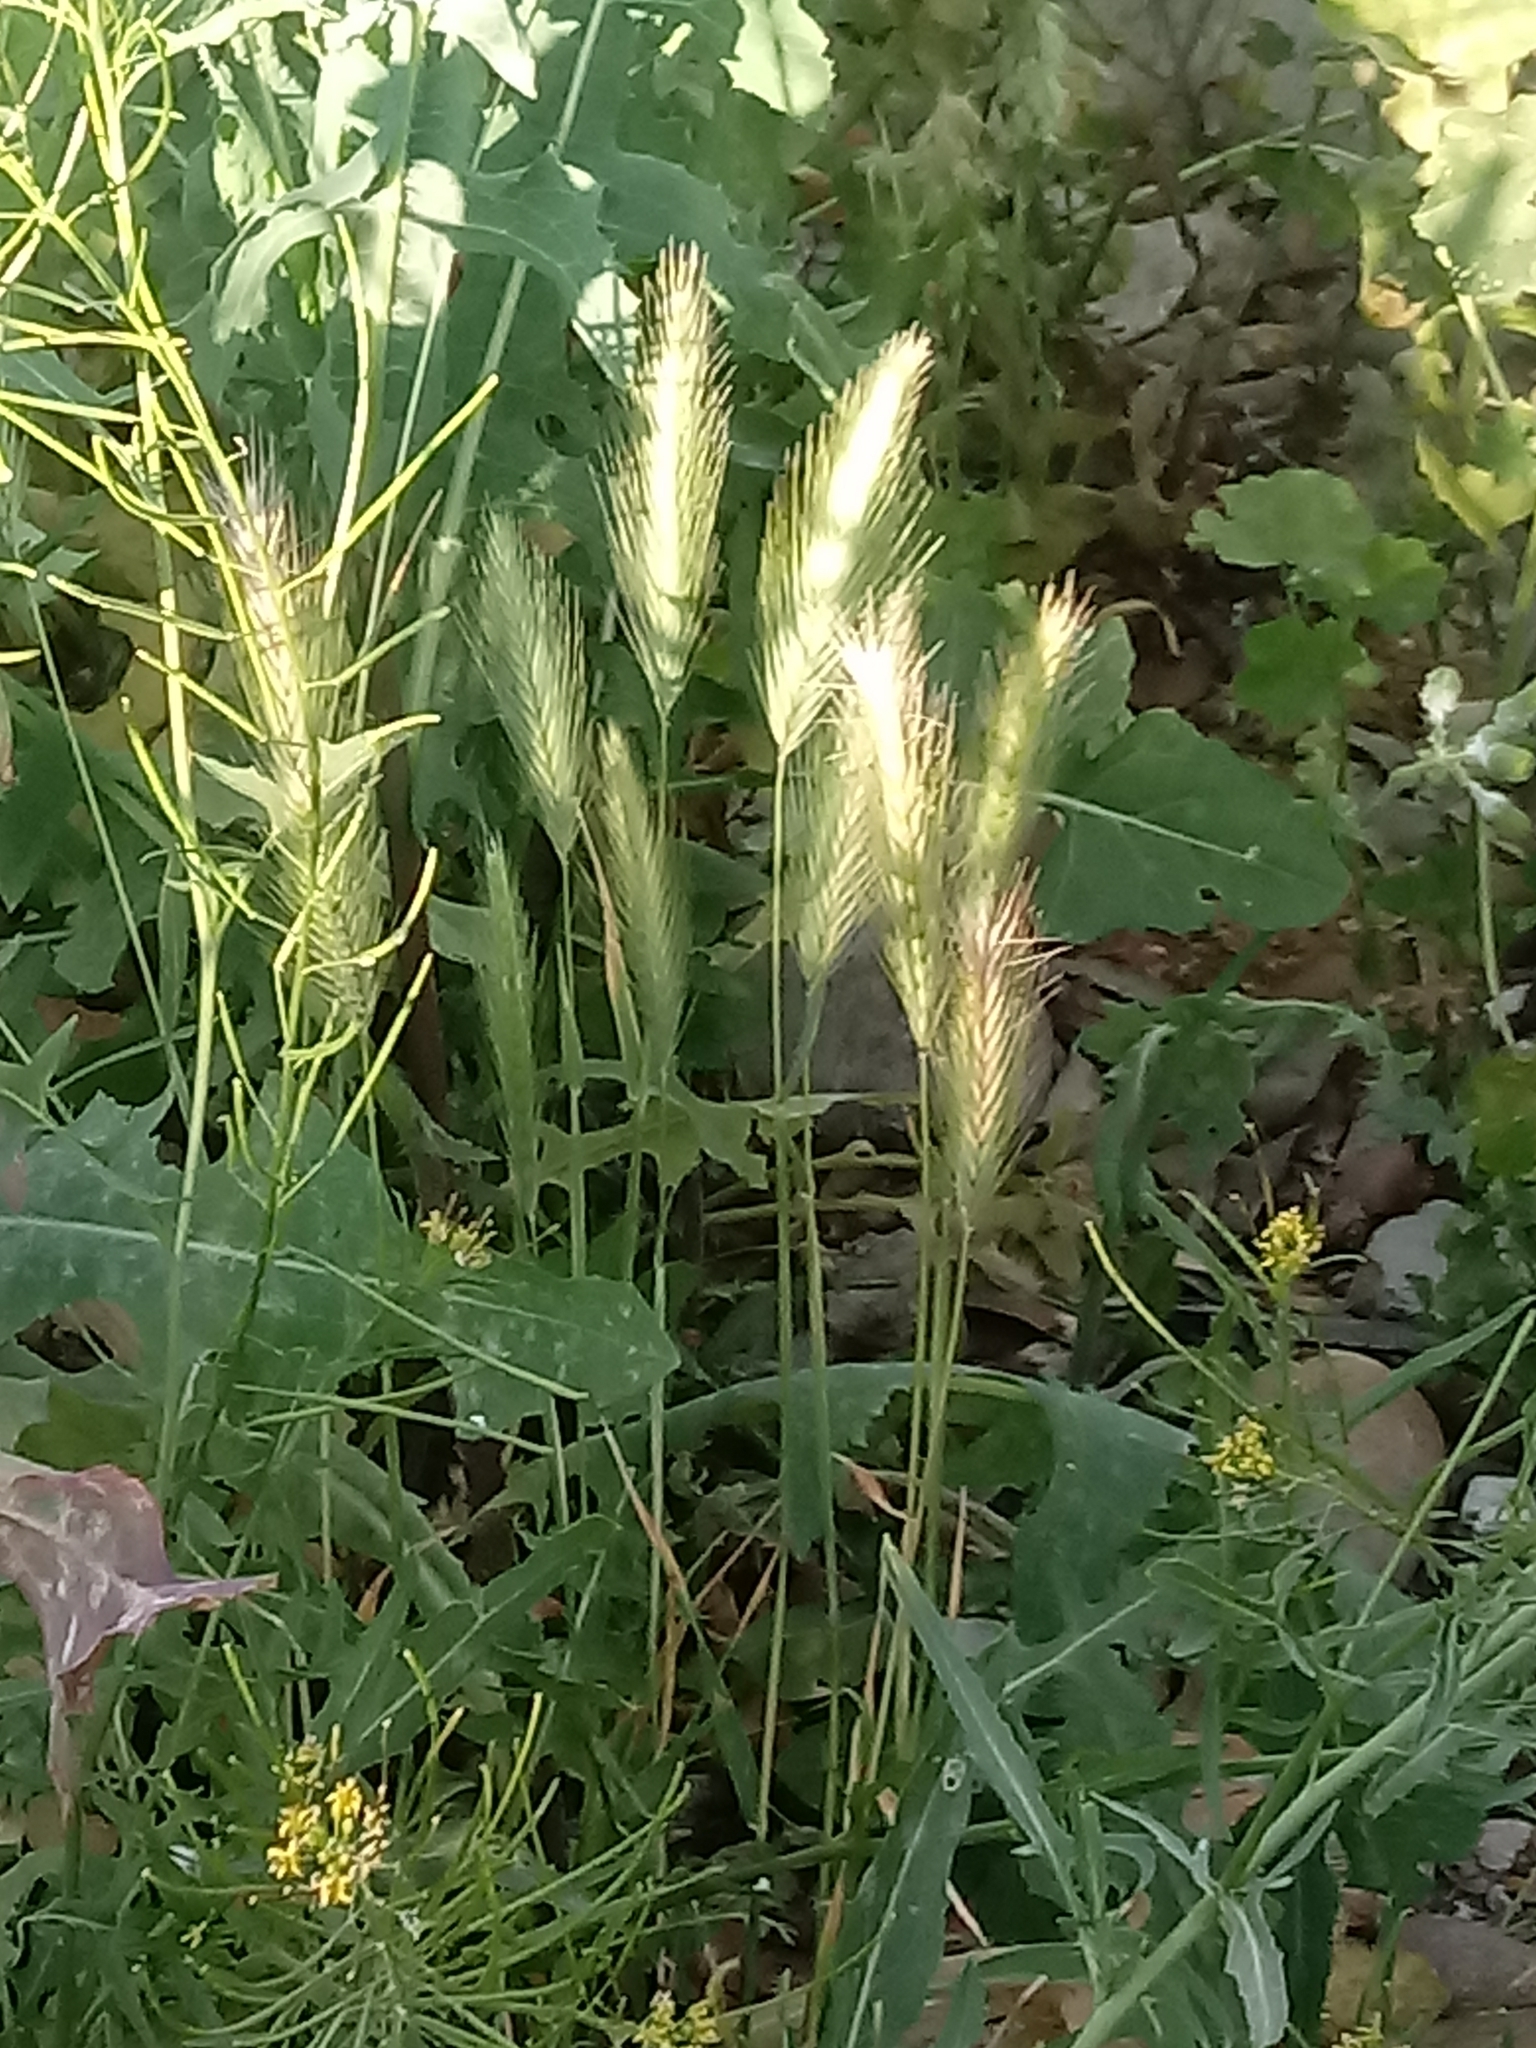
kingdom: Plantae
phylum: Tracheophyta
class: Liliopsida
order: Poales
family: Poaceae
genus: Hordeum
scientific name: Hordeum murinum
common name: Wall barley
